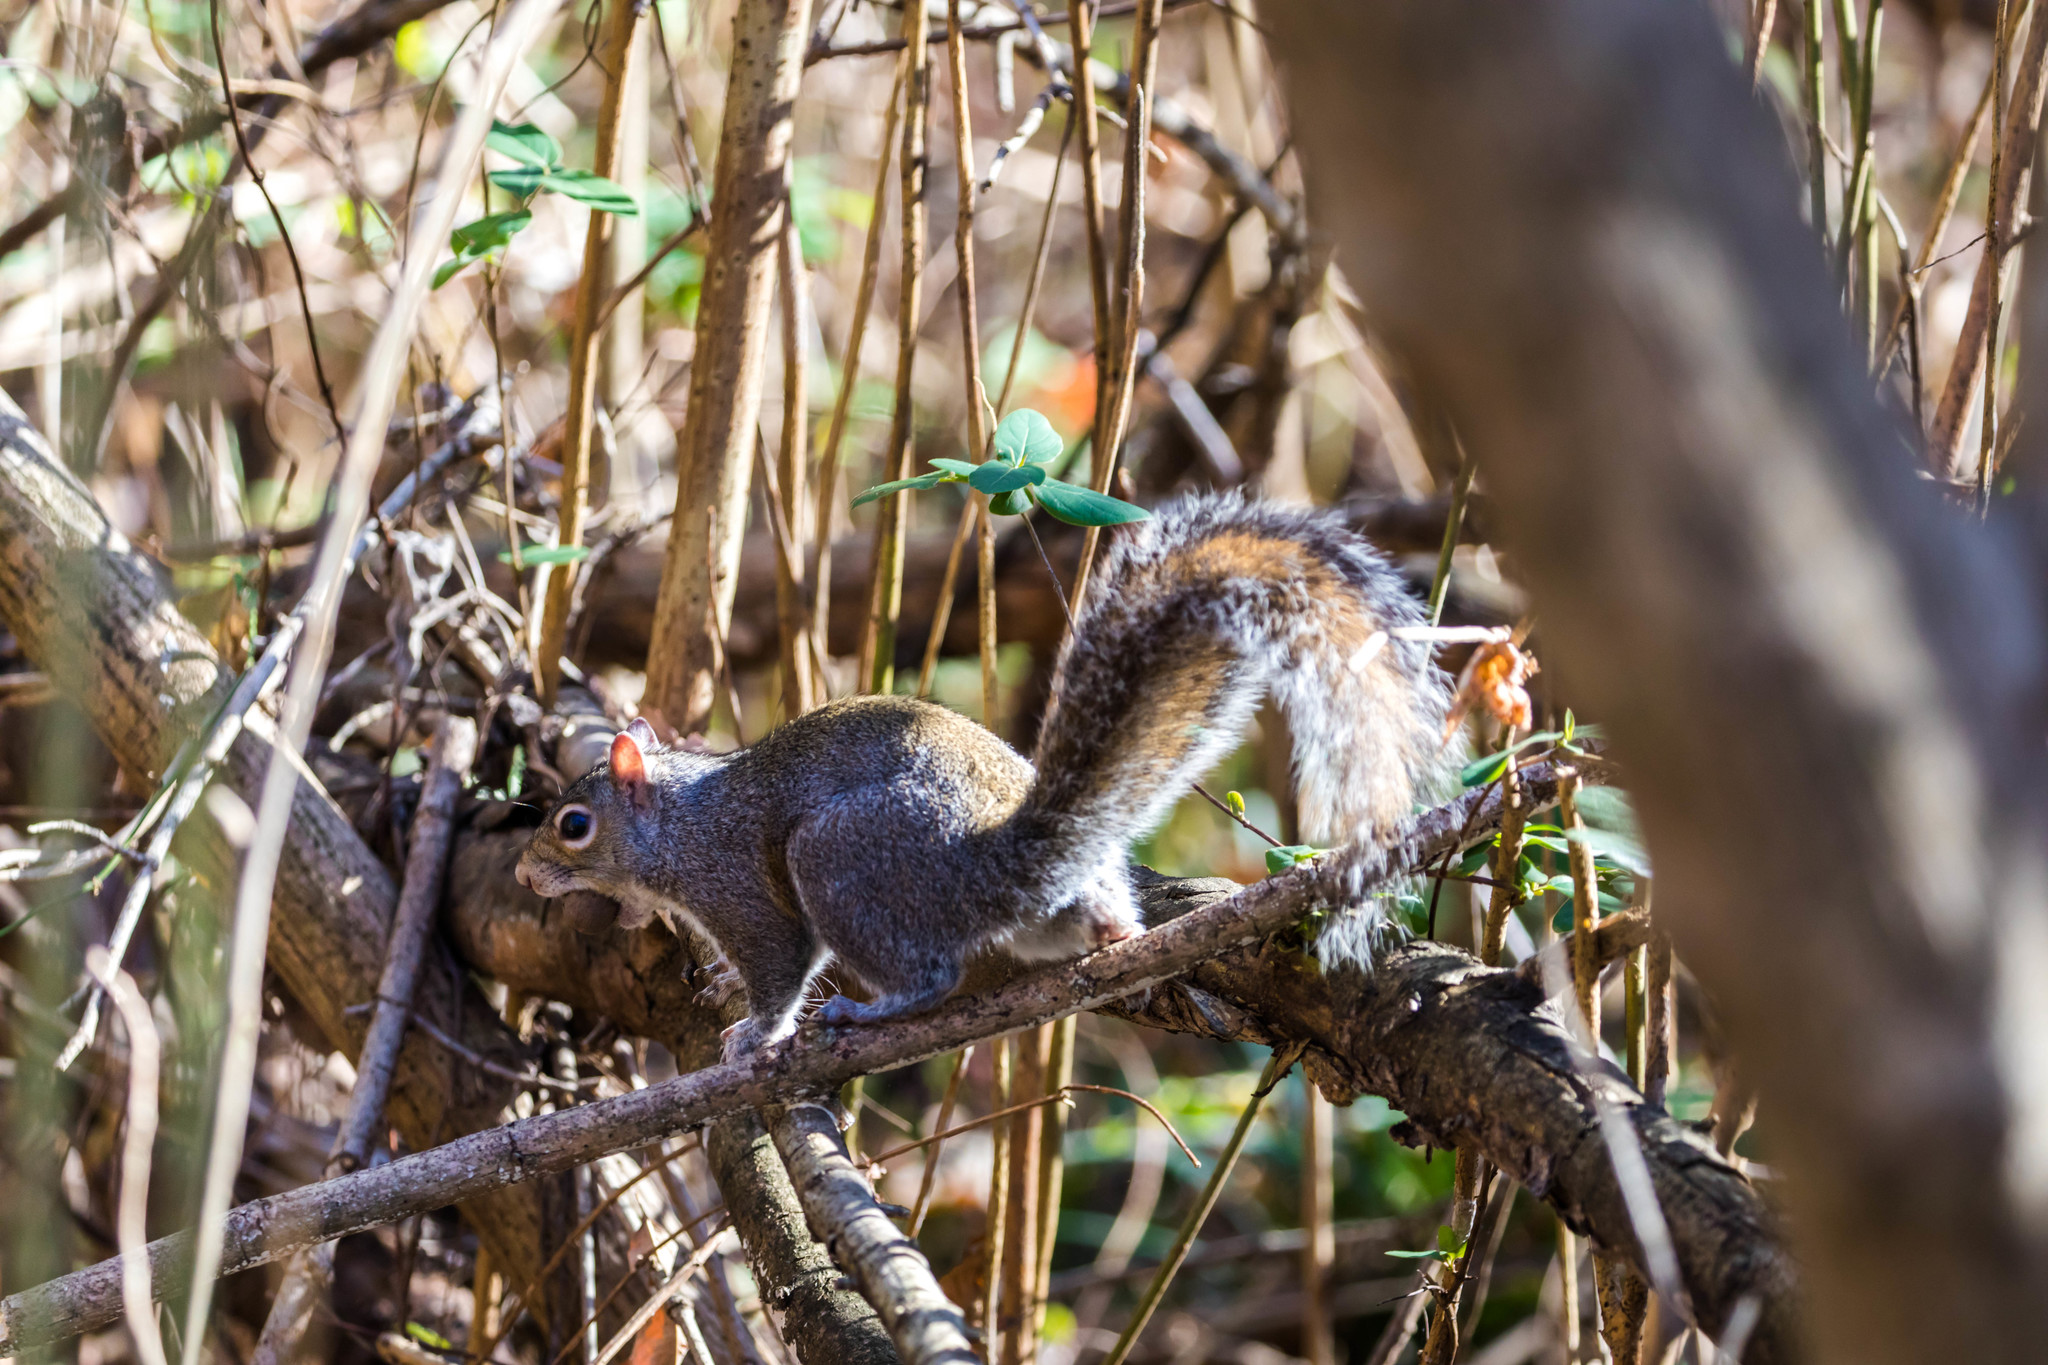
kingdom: Animalia
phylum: Chordata
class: Mammalia
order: Rodentia
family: Sciuridae
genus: Sciurus
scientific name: Sciurus carolinensis
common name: Eastern gray squirrel
